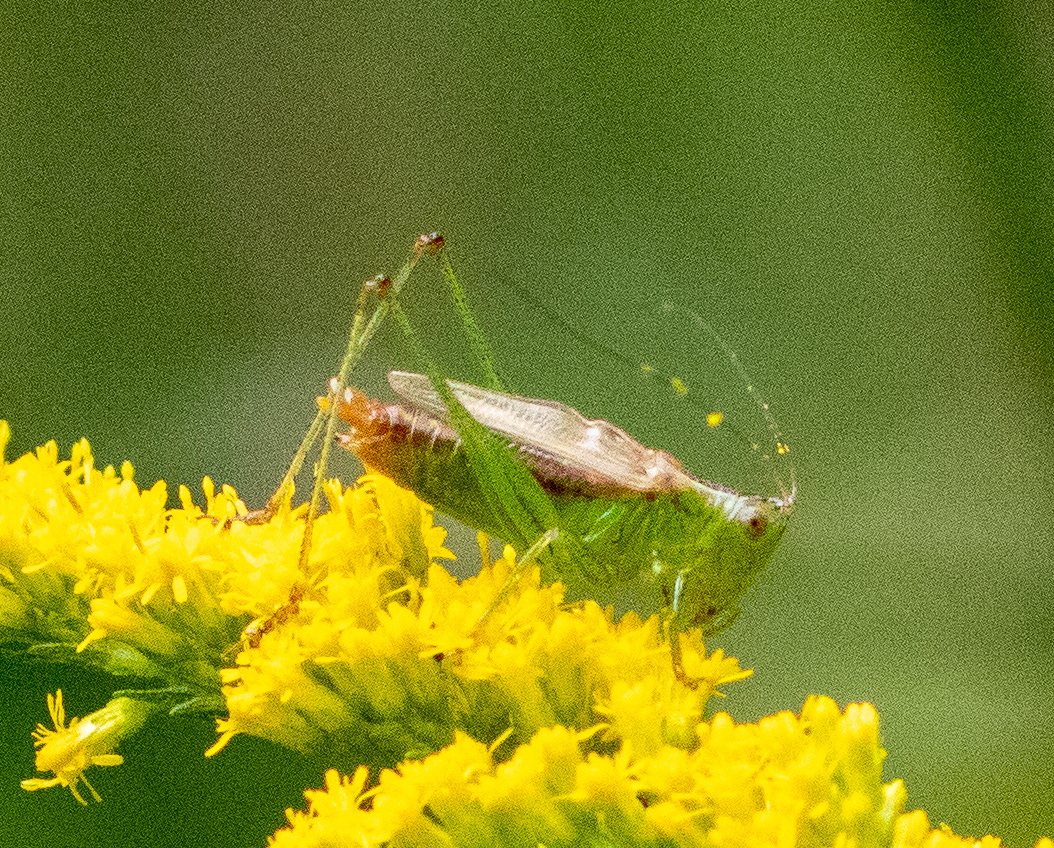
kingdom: Animalia
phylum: Arthropoda
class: Insecta
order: Orthoptera
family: Tettigoniidae
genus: Conocephalus
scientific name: Conocephalus brevipennis
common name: Short-winged meadow katydid
